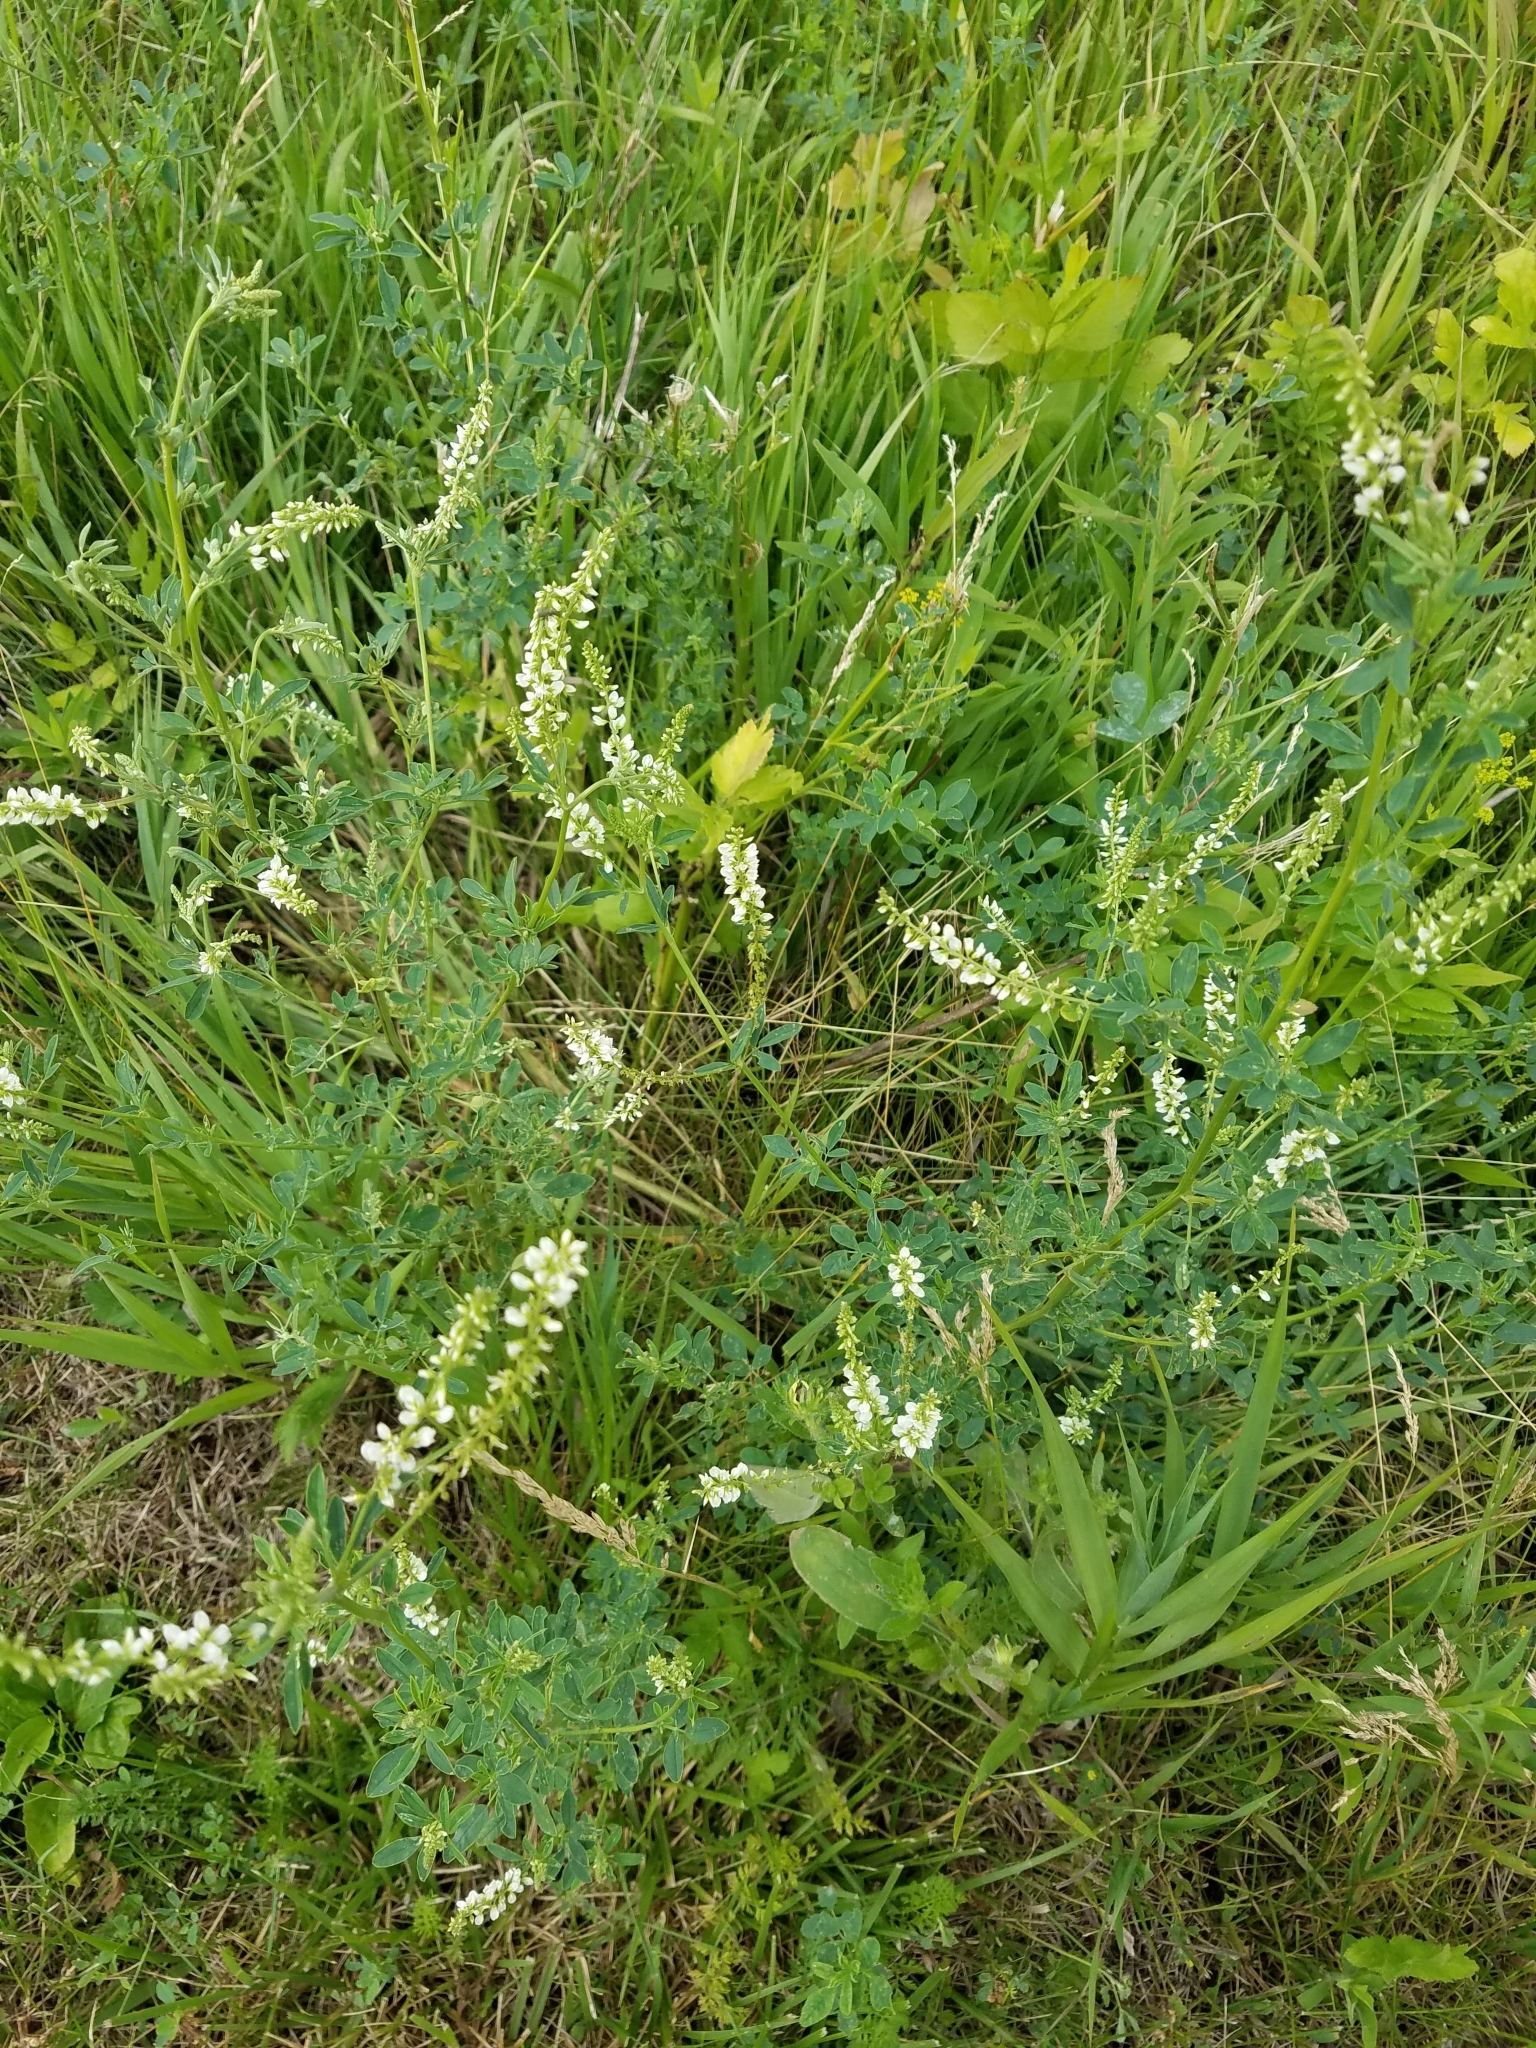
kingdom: Plantae
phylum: Tracheophyta
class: Magnoliopsida
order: Fabales
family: Fabaceae
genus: Melilotus
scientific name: Melilotus albus
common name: White melilot
